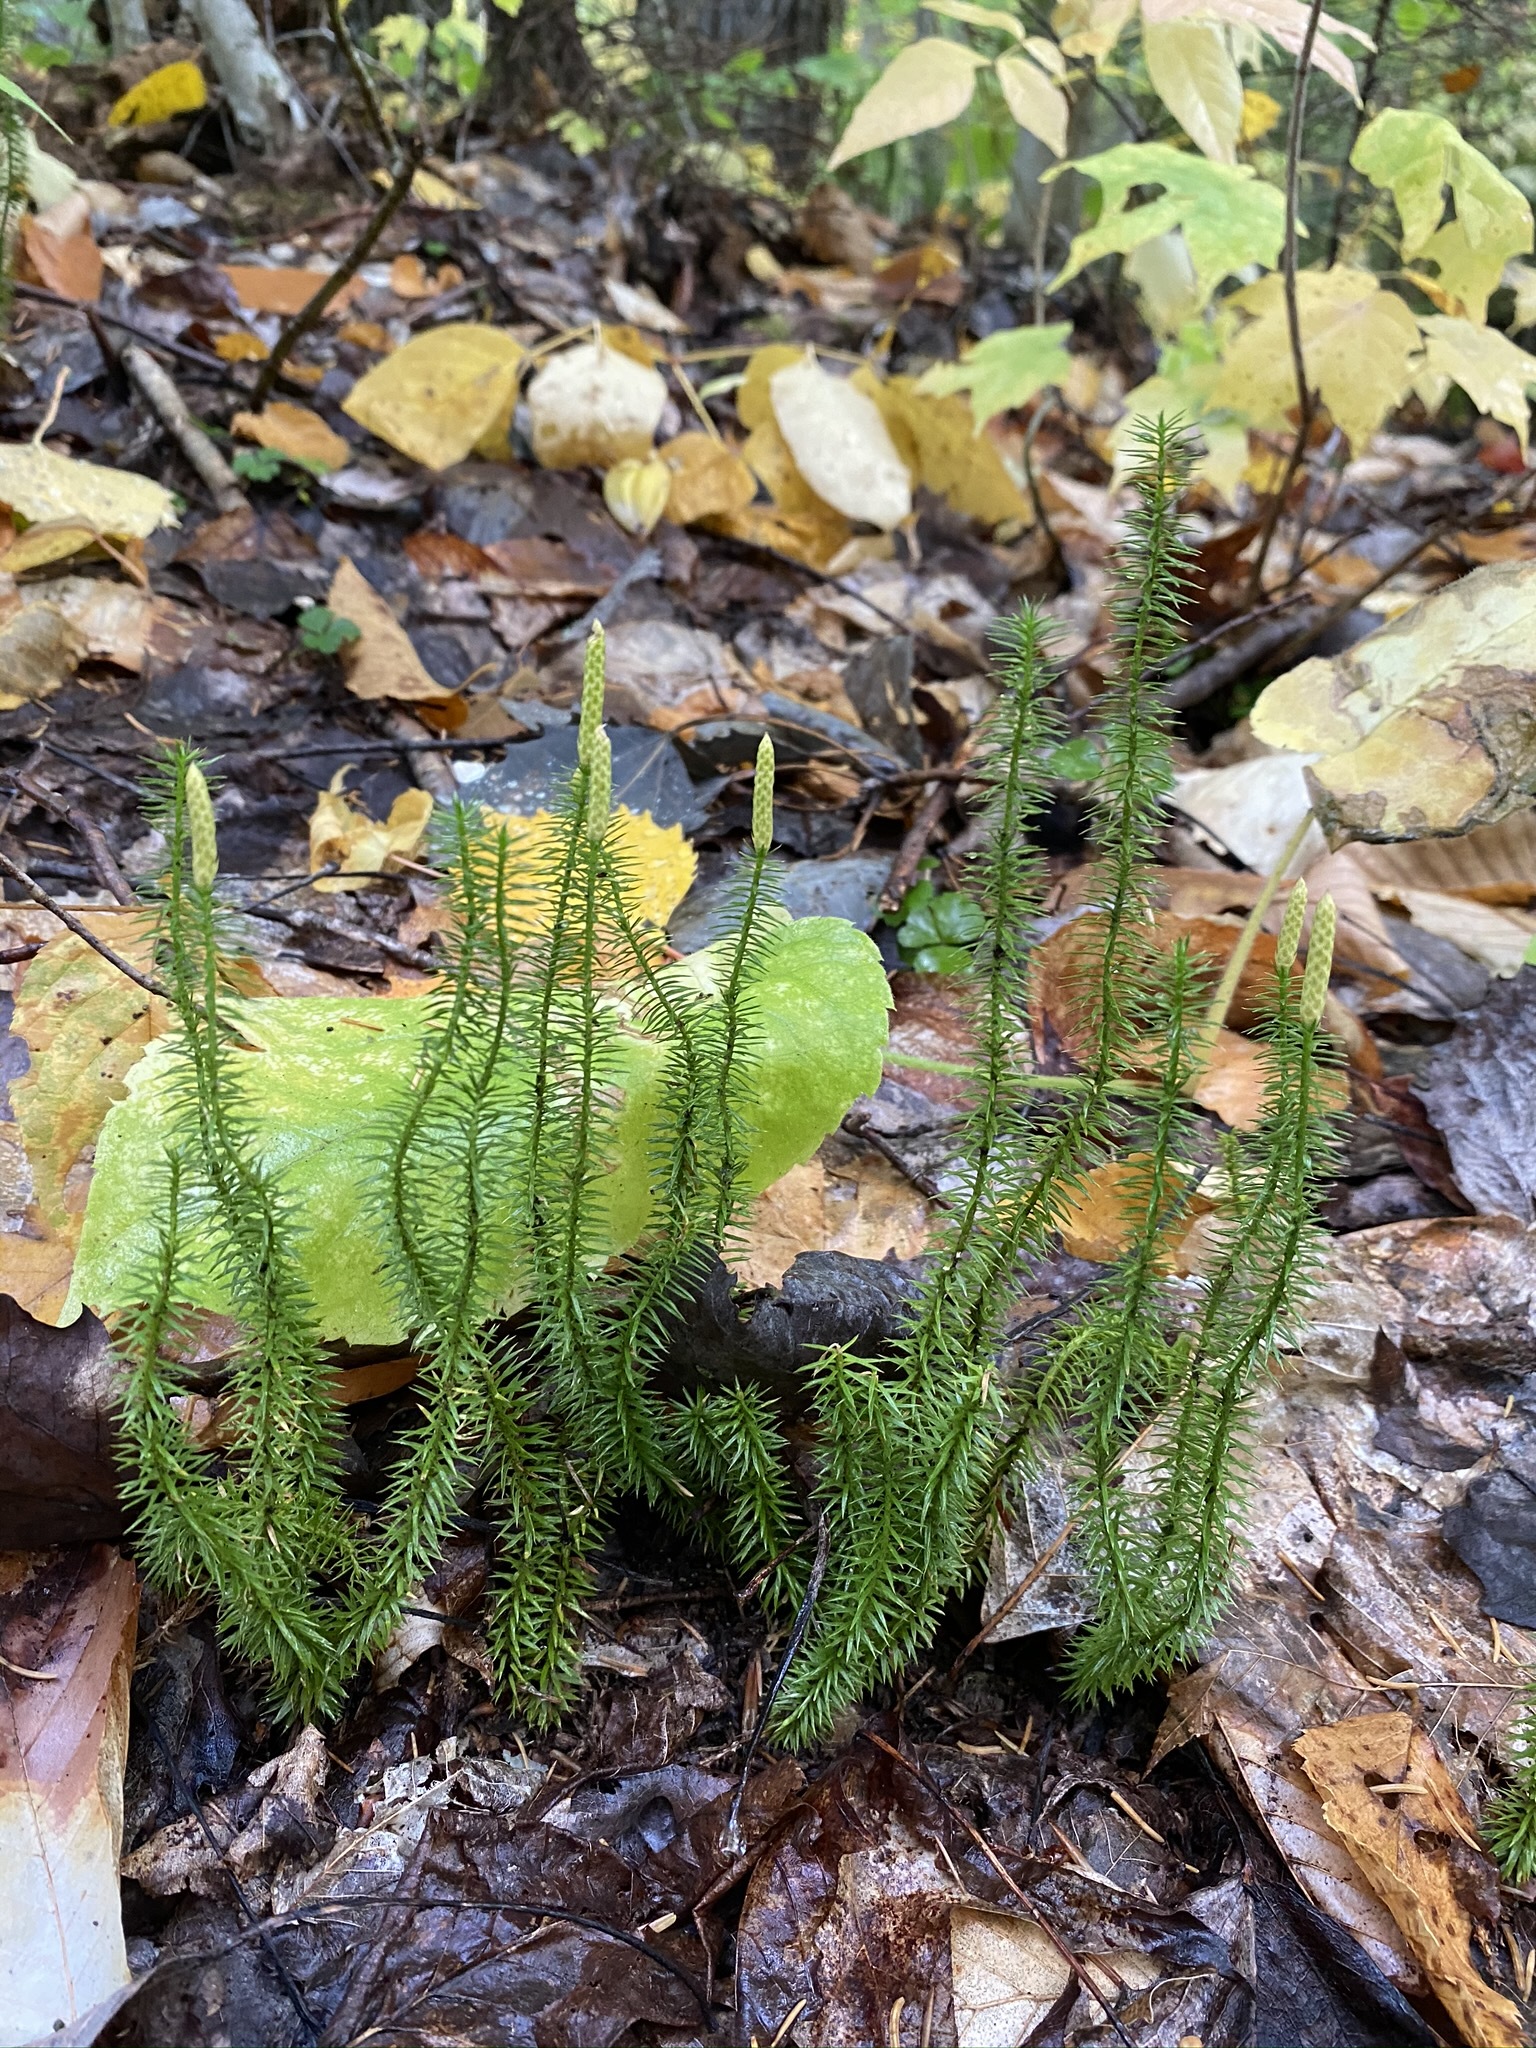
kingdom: Plantae
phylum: Tracheophyta
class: Lycopodiopsida
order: Lycopodiales
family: Lycopodiaceae
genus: Spinulum
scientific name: Spinulum annotinum
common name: Interrupted club-moss
